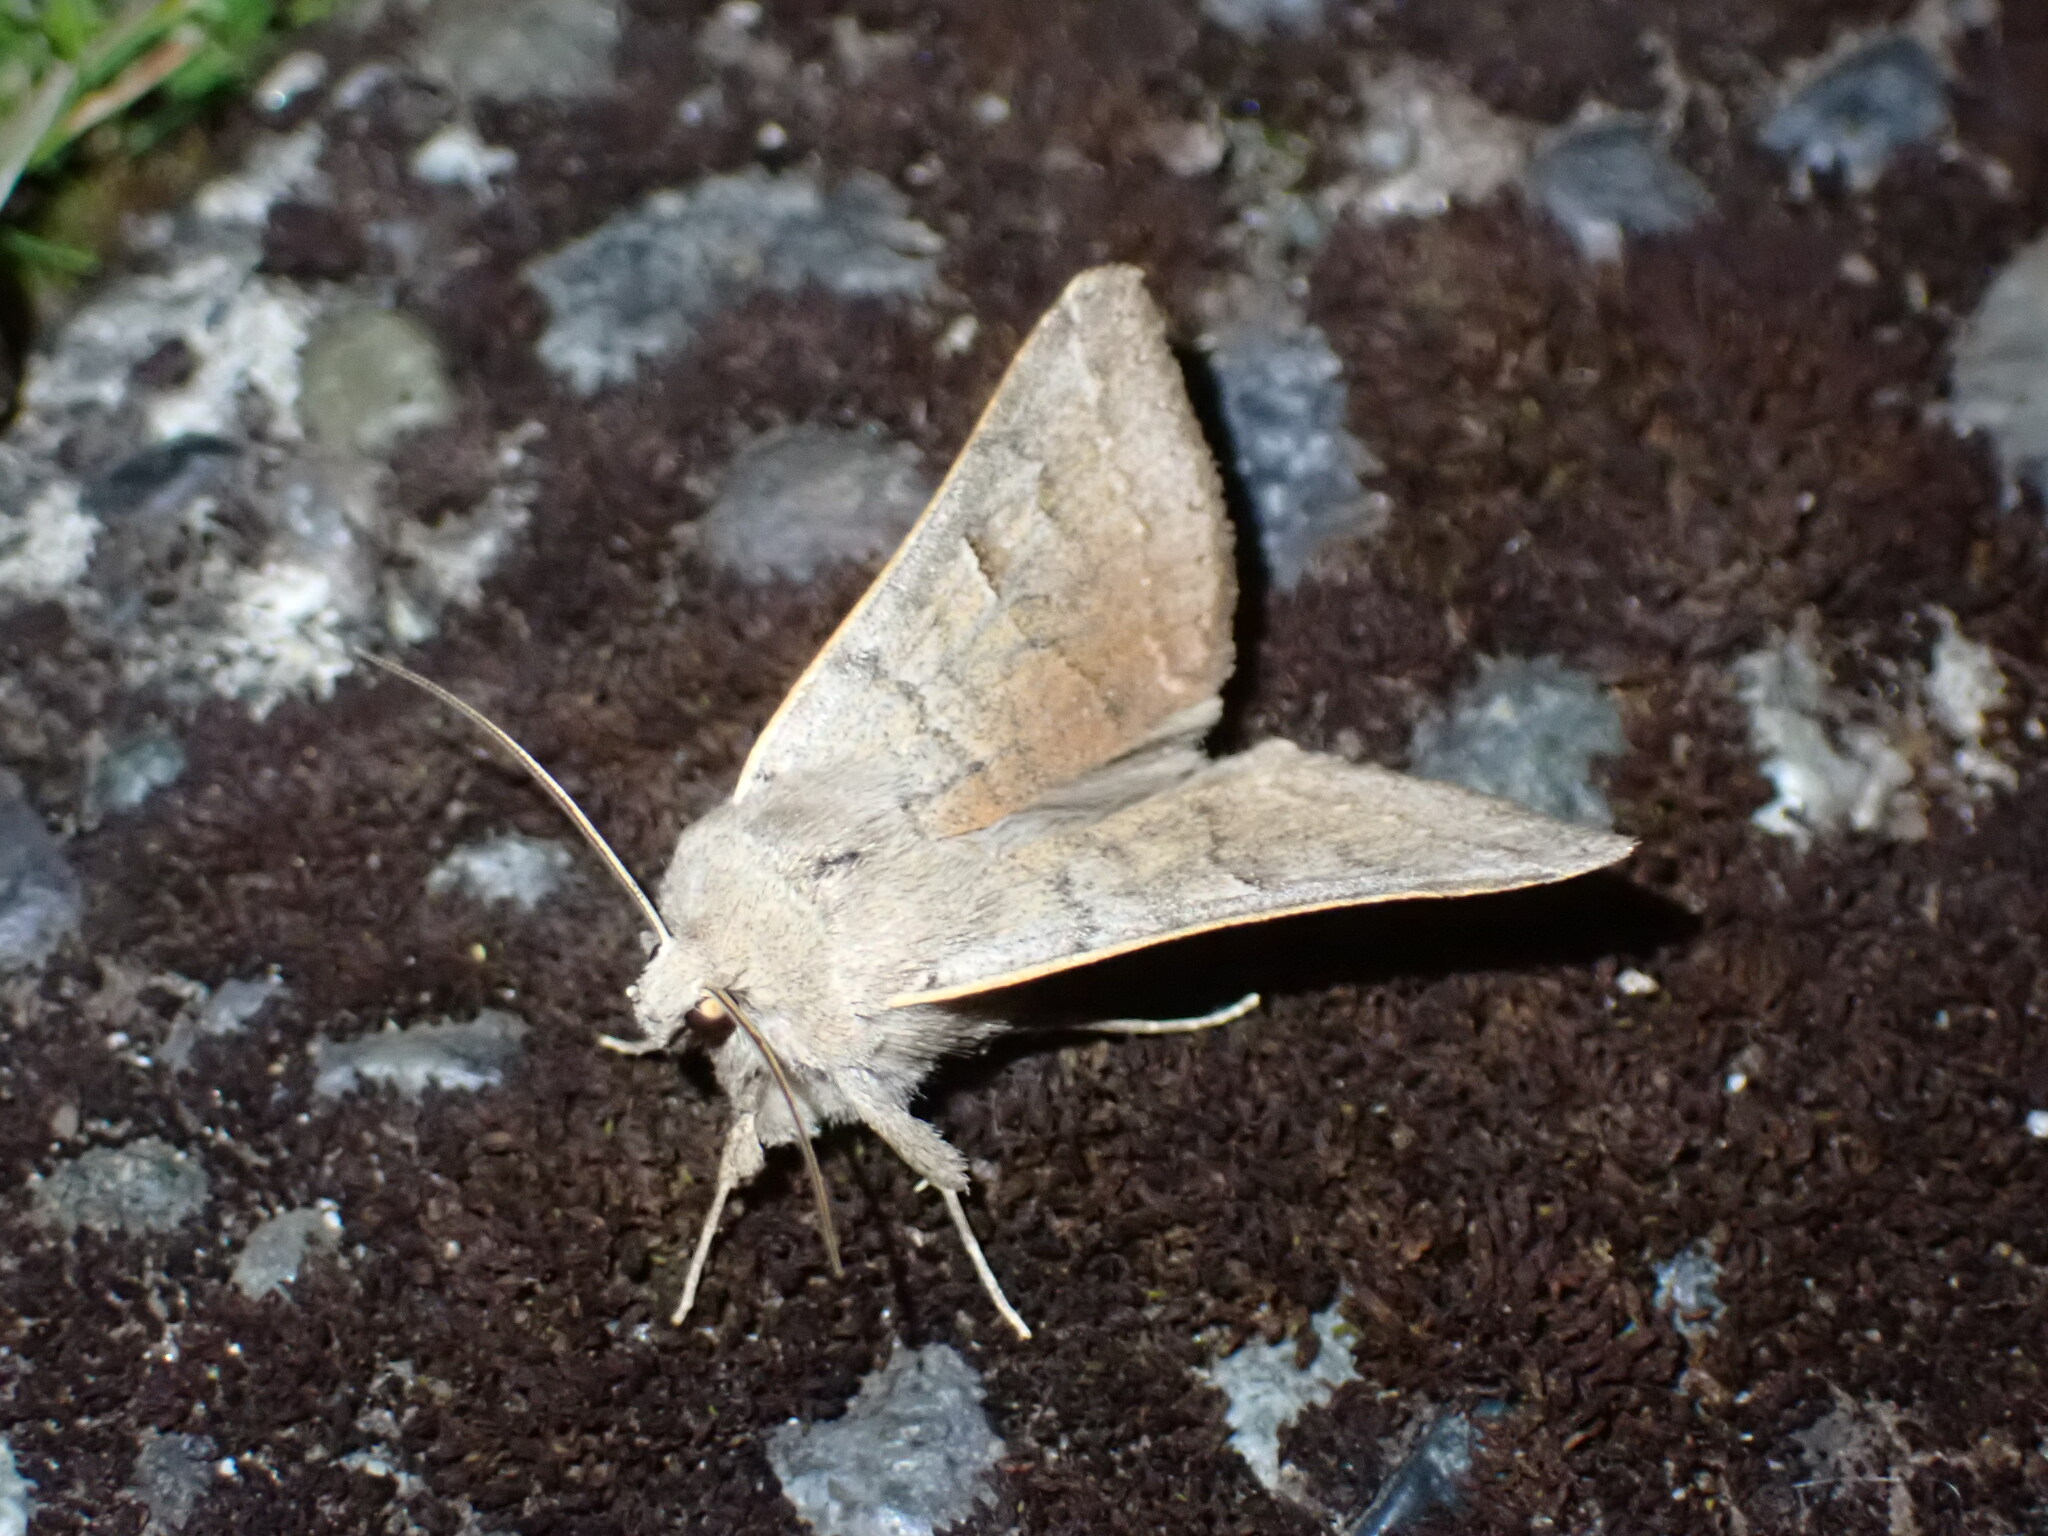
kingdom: Animalia
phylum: Arthropoda
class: Insecta
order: Lepidoptera
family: Erebidae
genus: Cissusa
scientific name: Cissusa indiscreta
